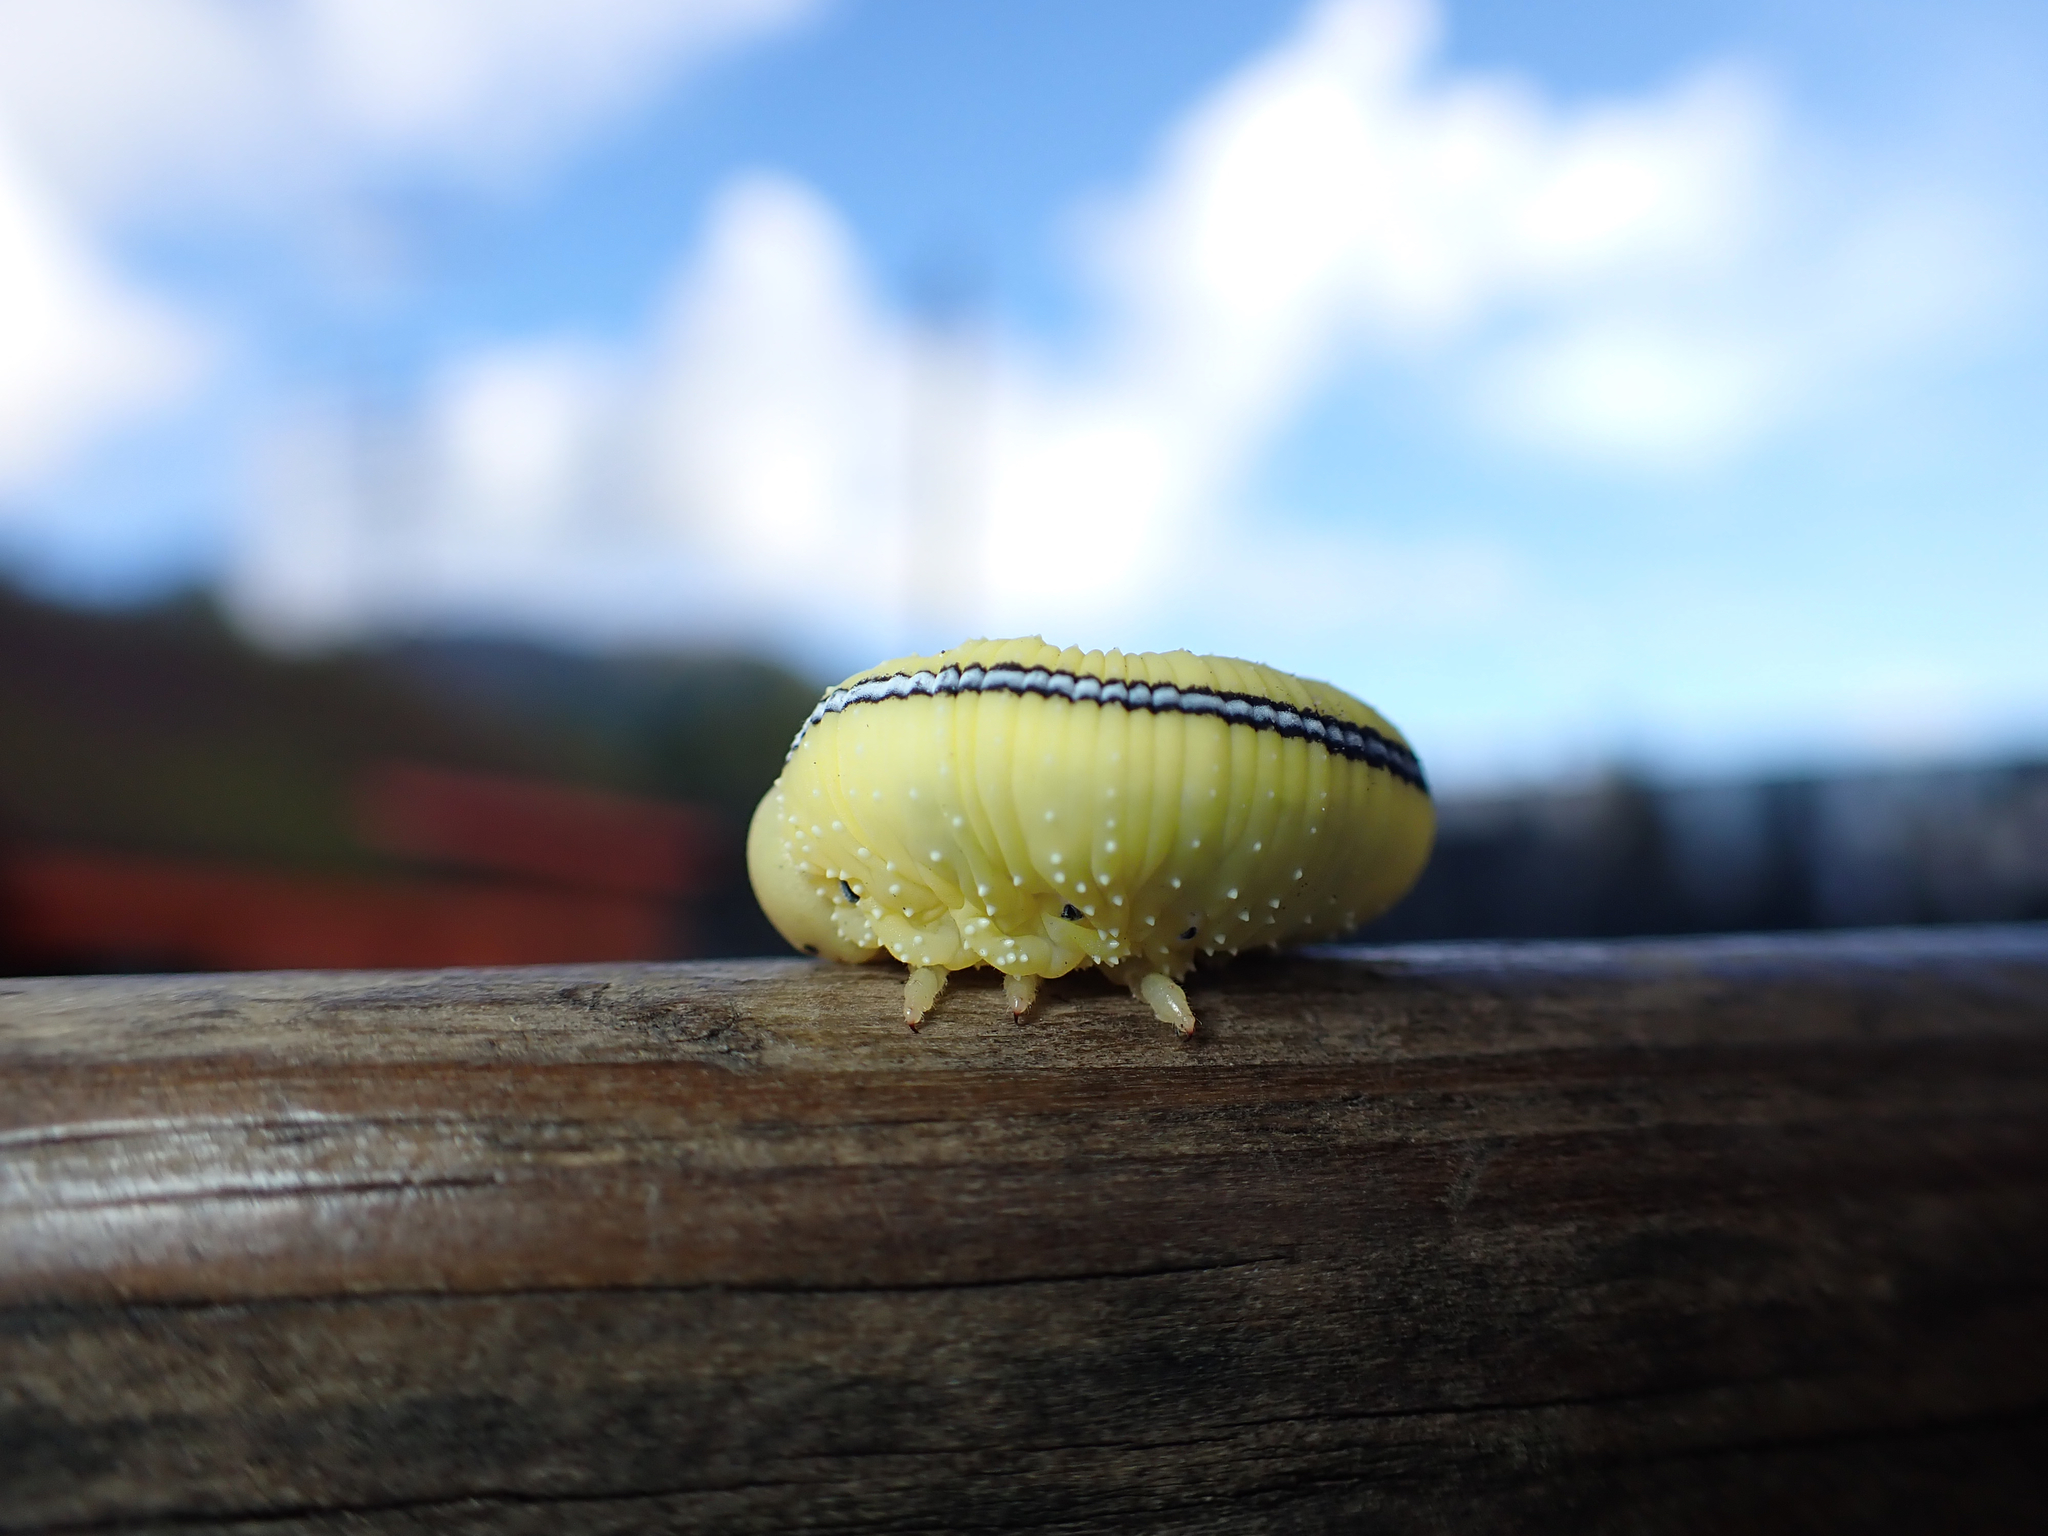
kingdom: Animalia
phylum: Arthropoda
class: Insecta
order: Hymenoptera
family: Cimbicidae
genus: Cimbex
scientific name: Cimbex americana
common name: Elm sawfly
